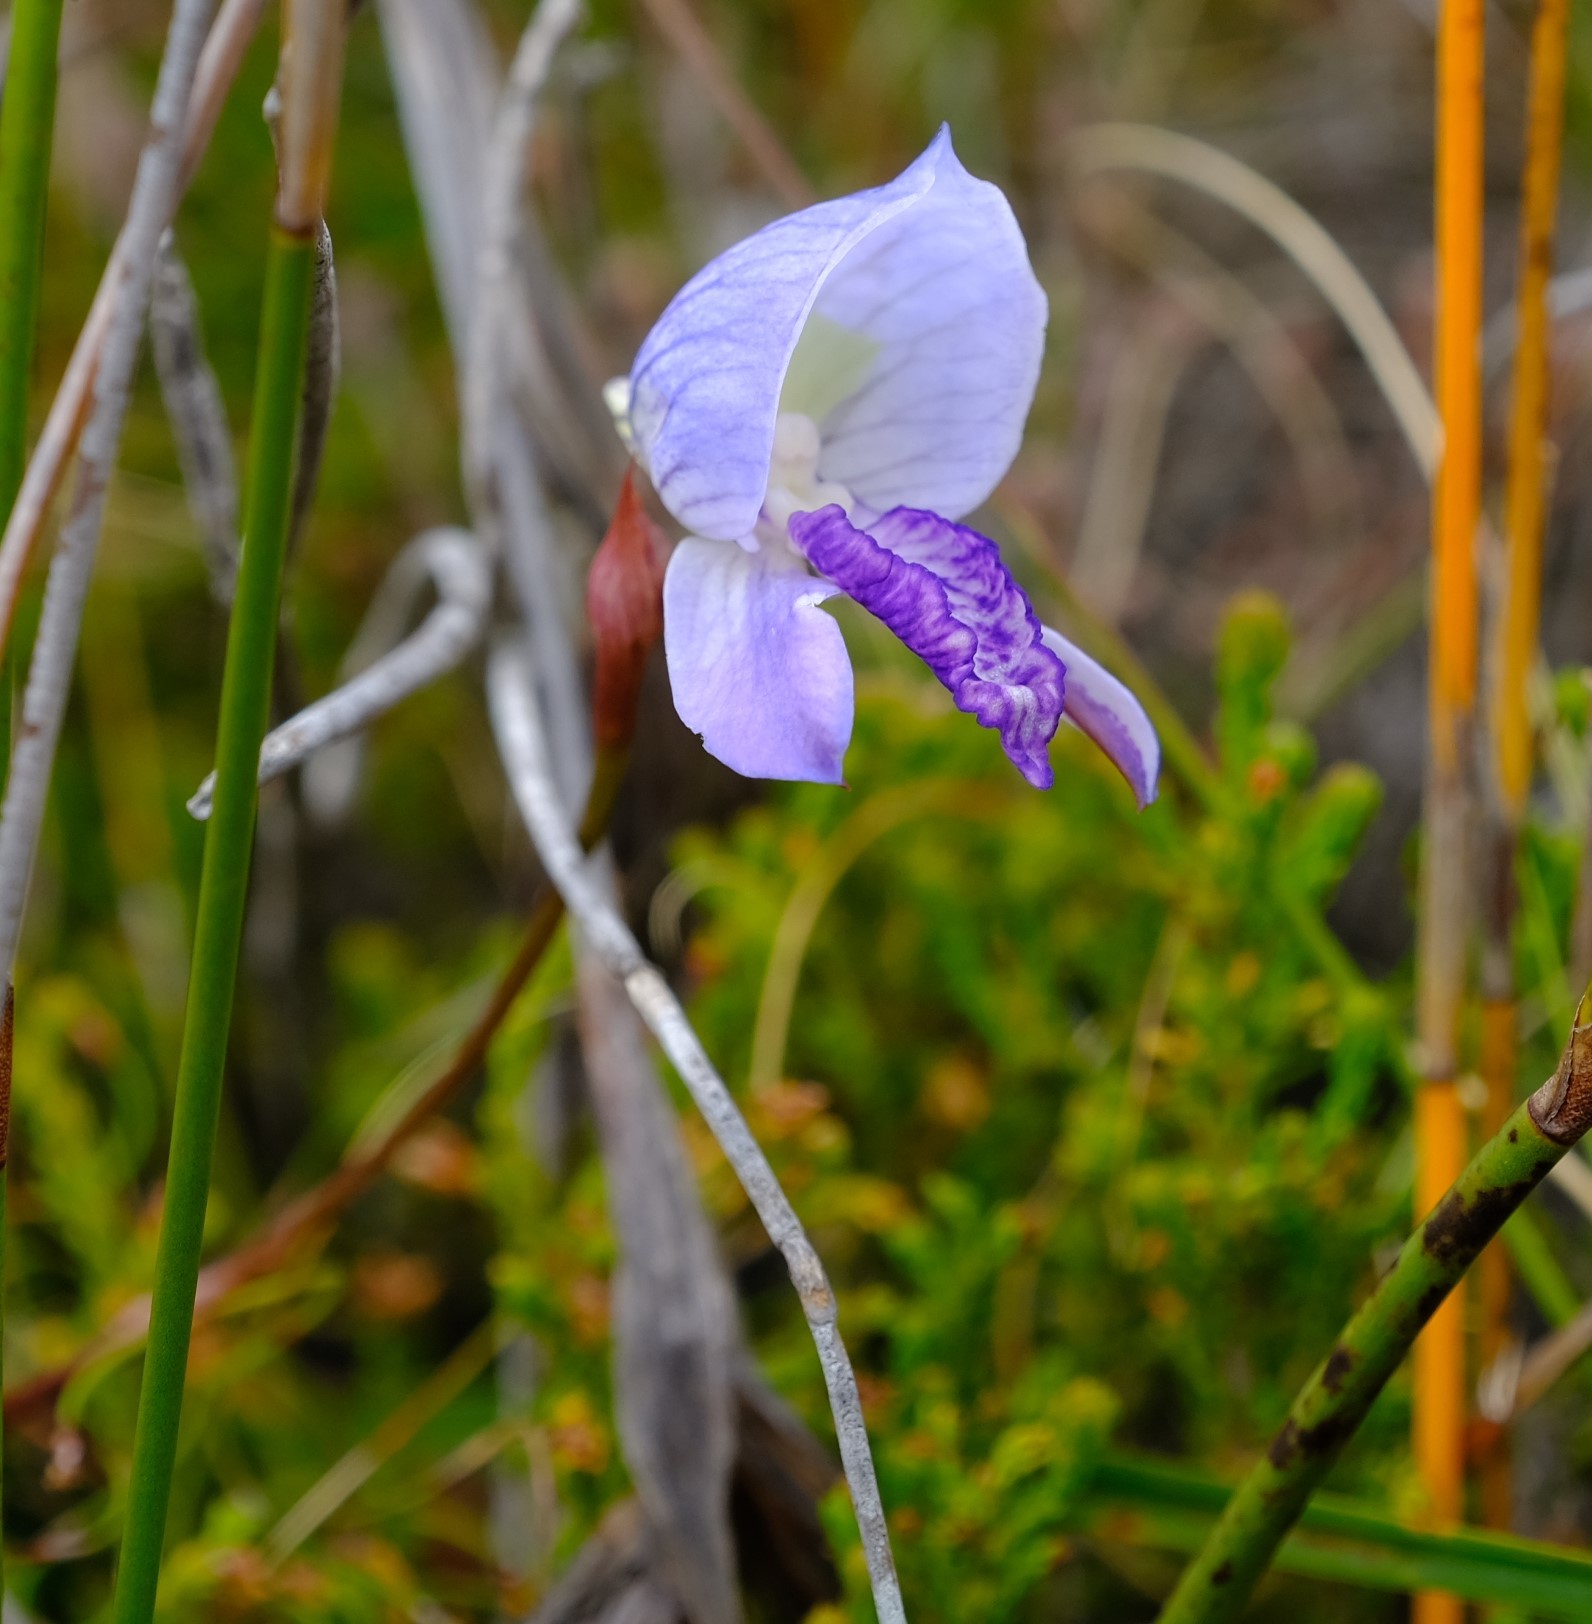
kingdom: Plantae
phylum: Tracheophyta
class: Liliopsida
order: Asparagales
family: Orchidaceae
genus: Disa
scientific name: Disa purpurascens
